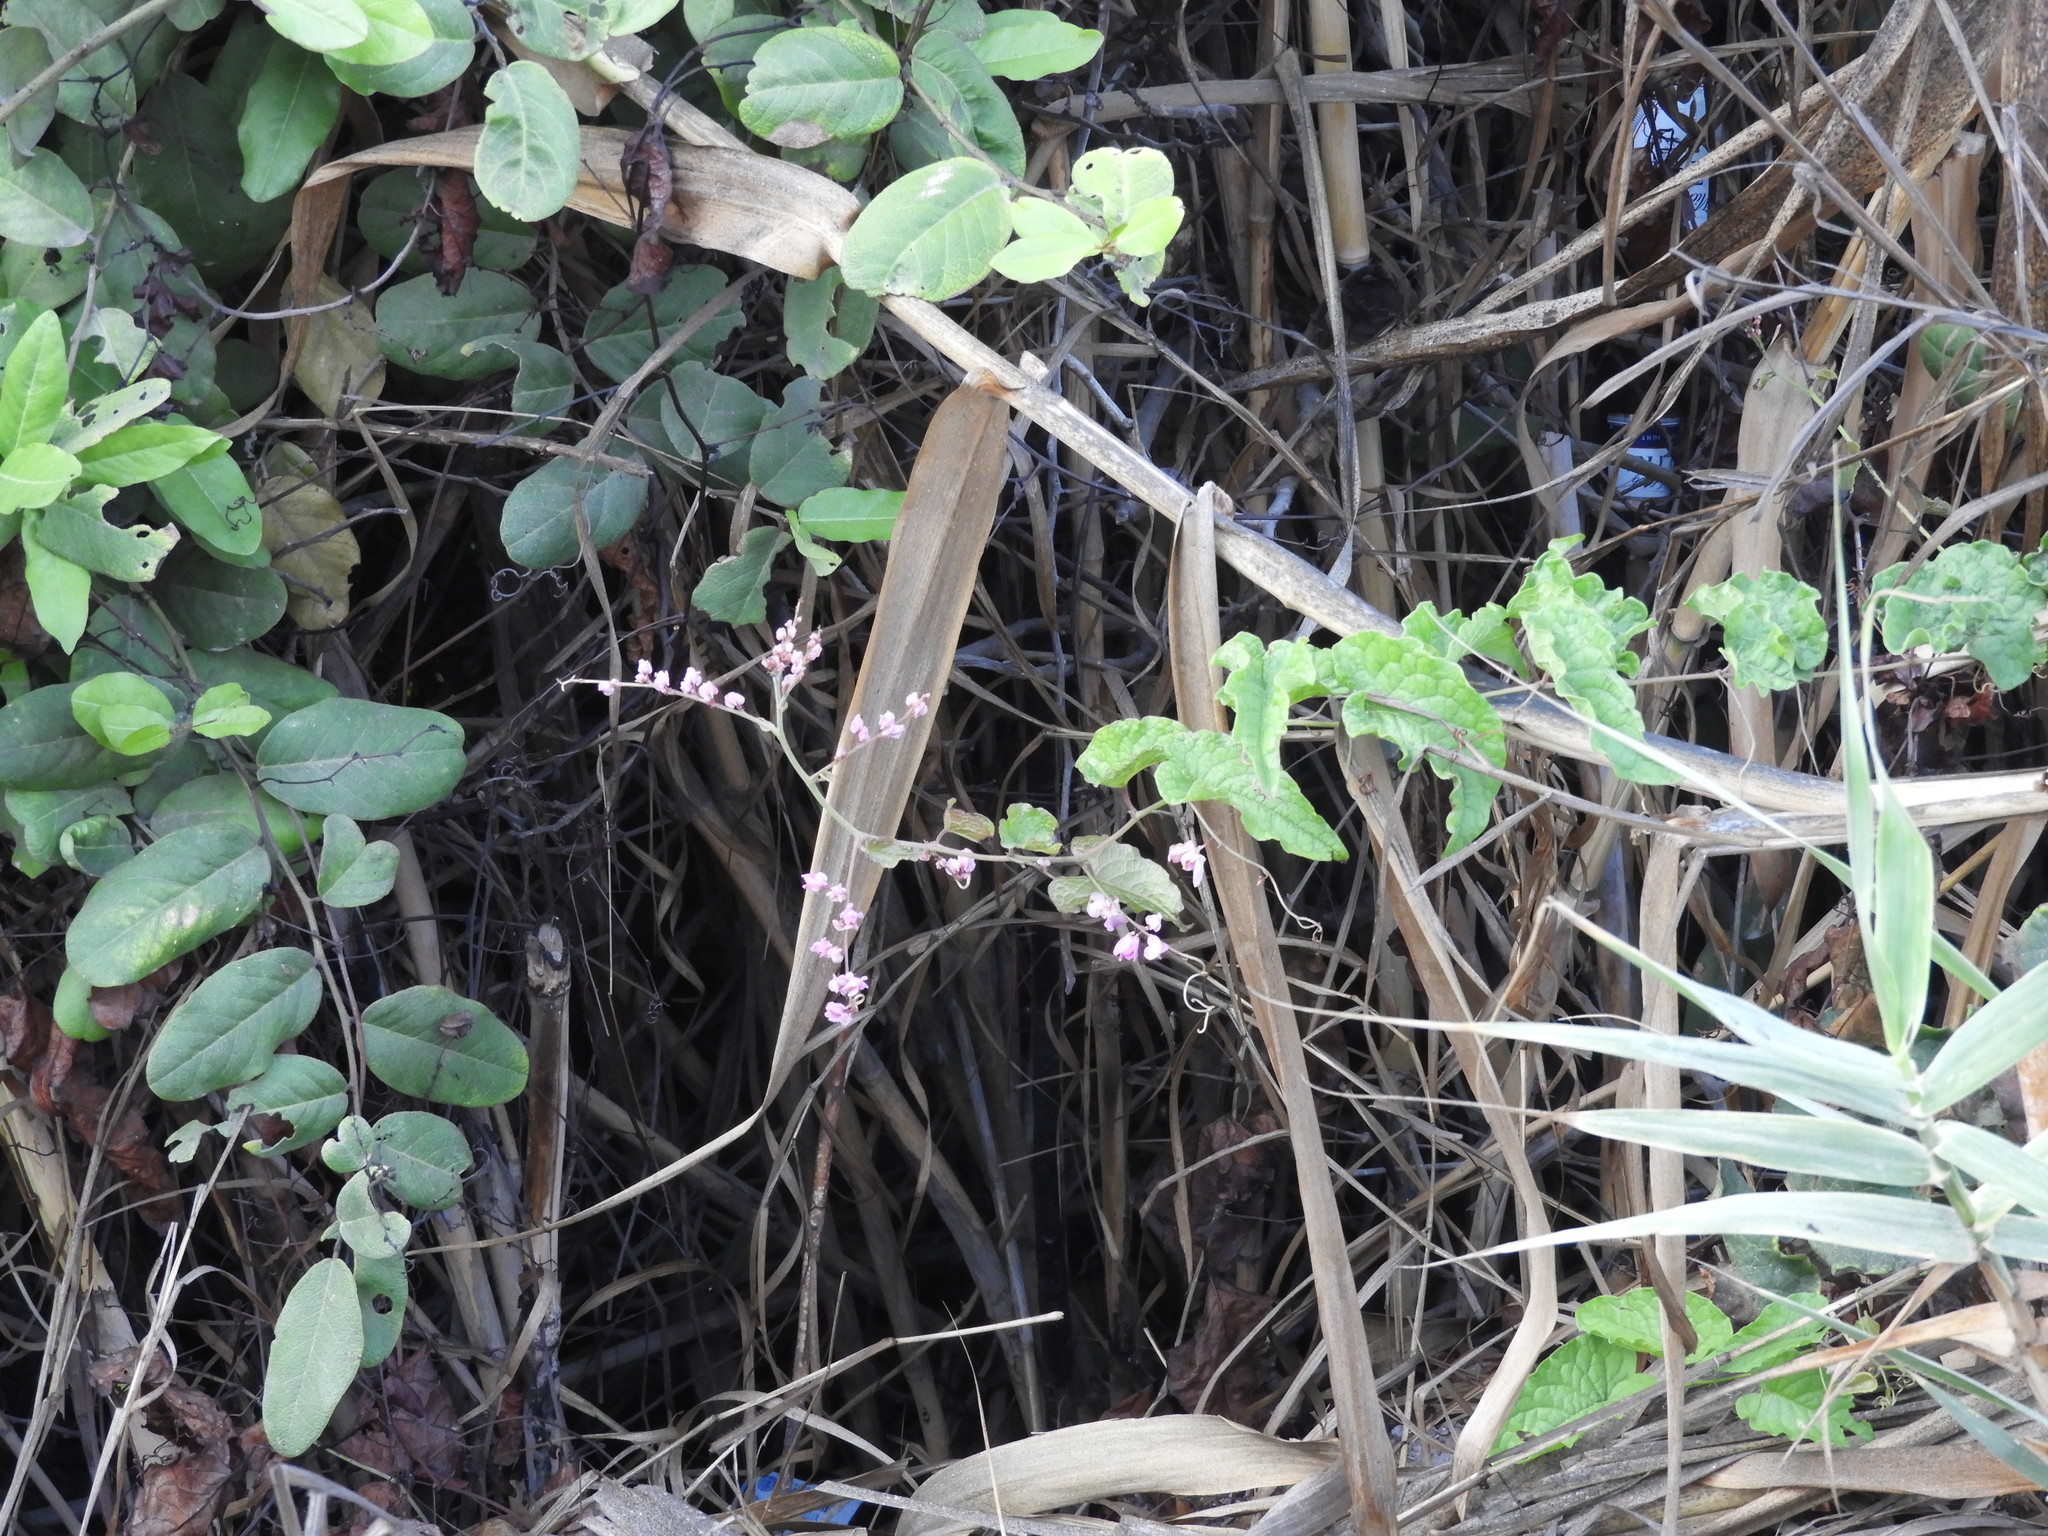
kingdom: Plantae
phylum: Tracheophyta
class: Magnoliopsida
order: Caryophyllales
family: Polygonaceae
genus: Antigonon
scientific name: Antigonon leptopus
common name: Coral vine
